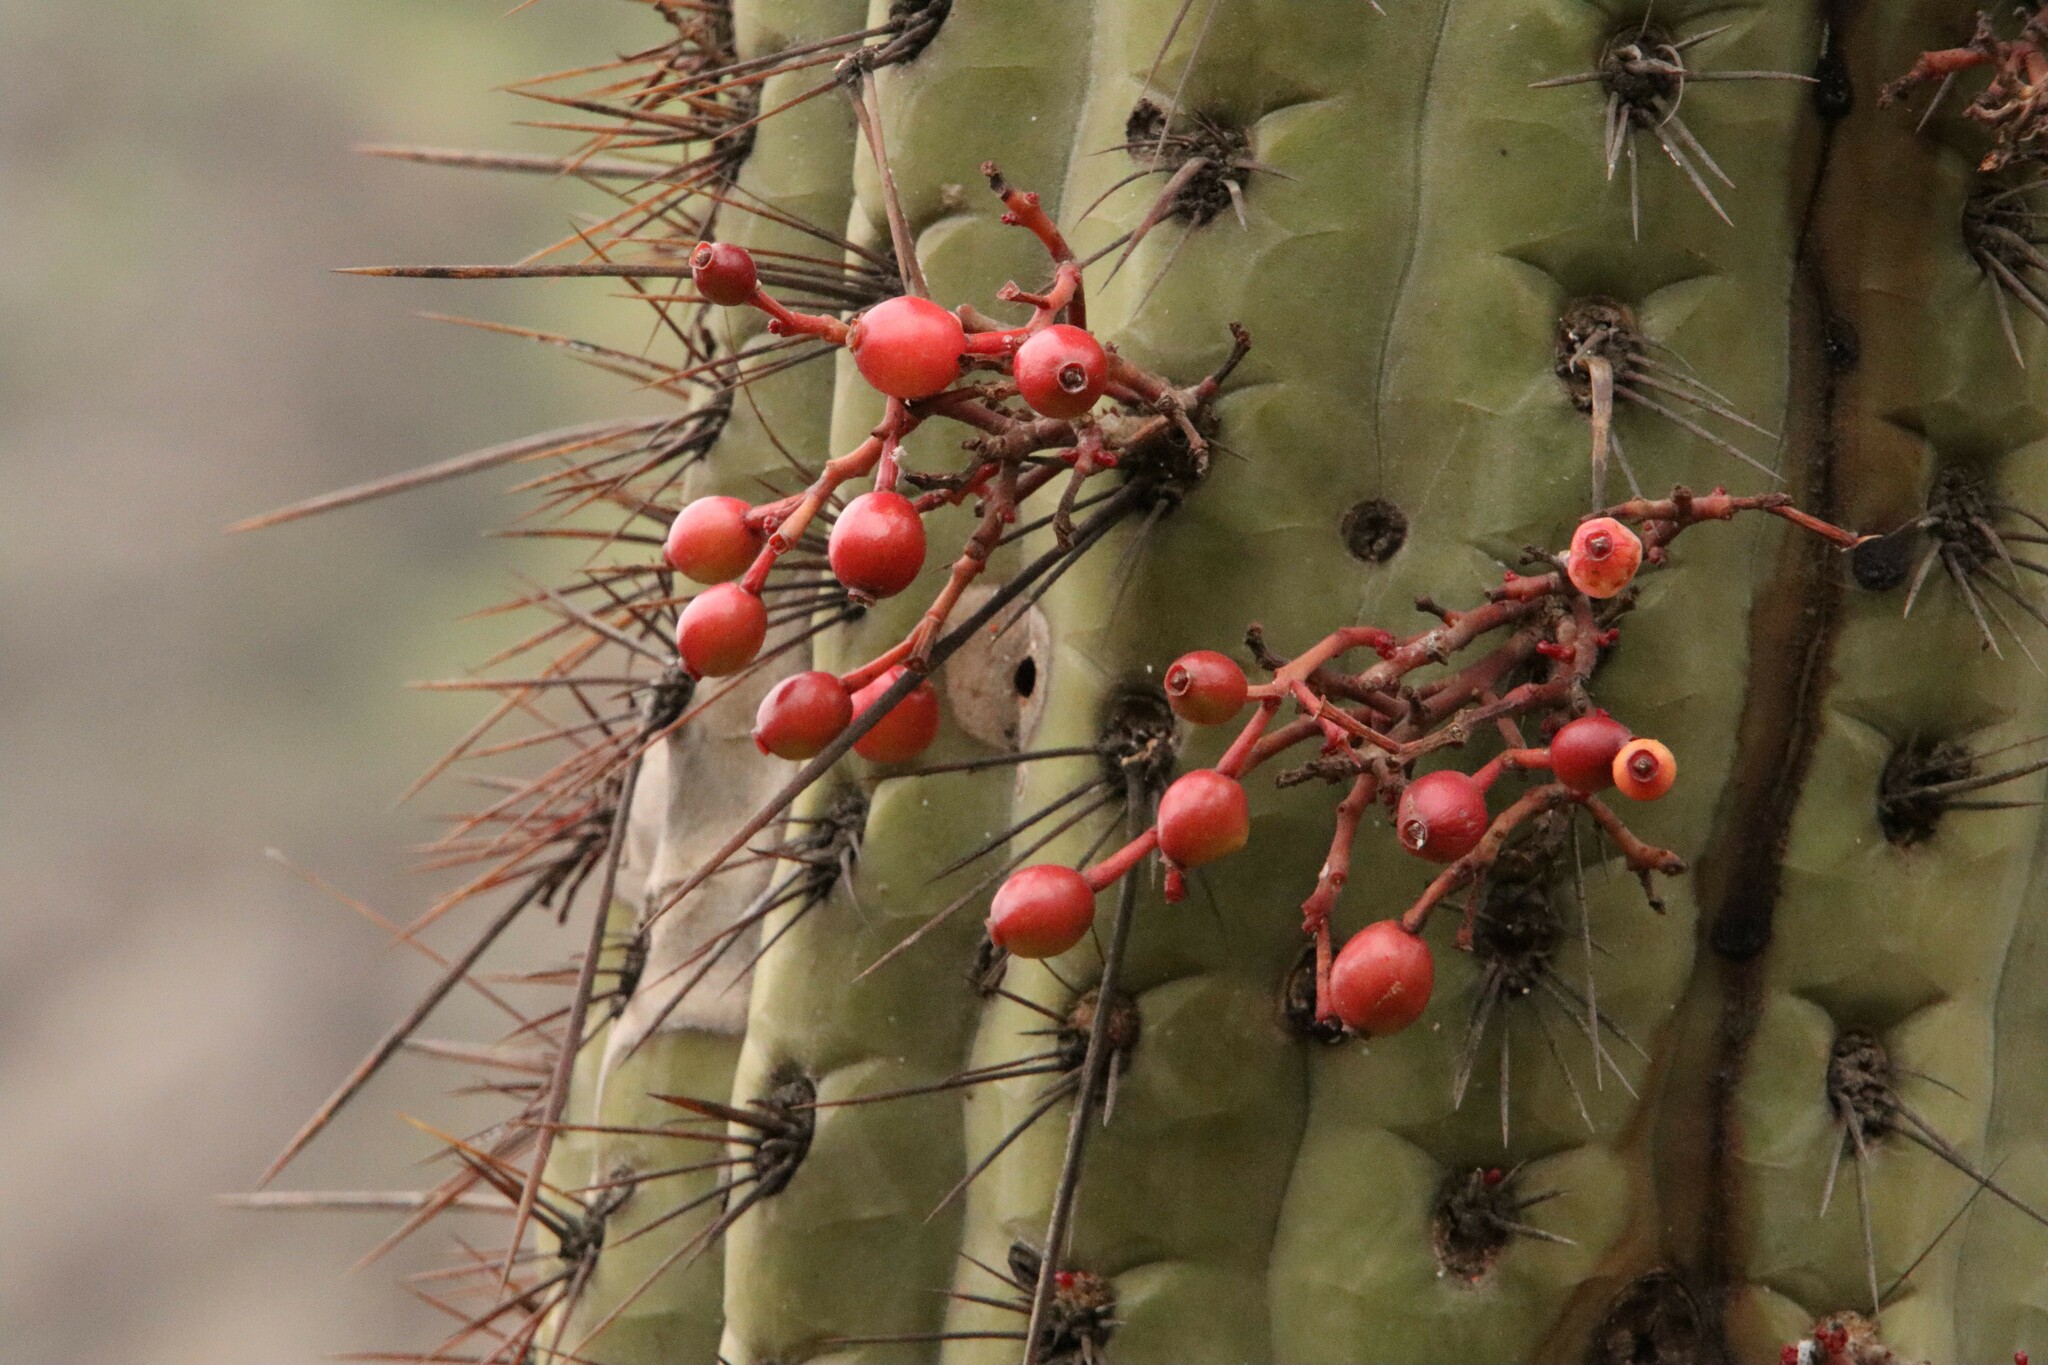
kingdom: Plantae
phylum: Tracheophyta
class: Magnoliopsida
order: Santalales
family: Loranthaceae
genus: Tristerix
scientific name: Tristerix aphyllus
